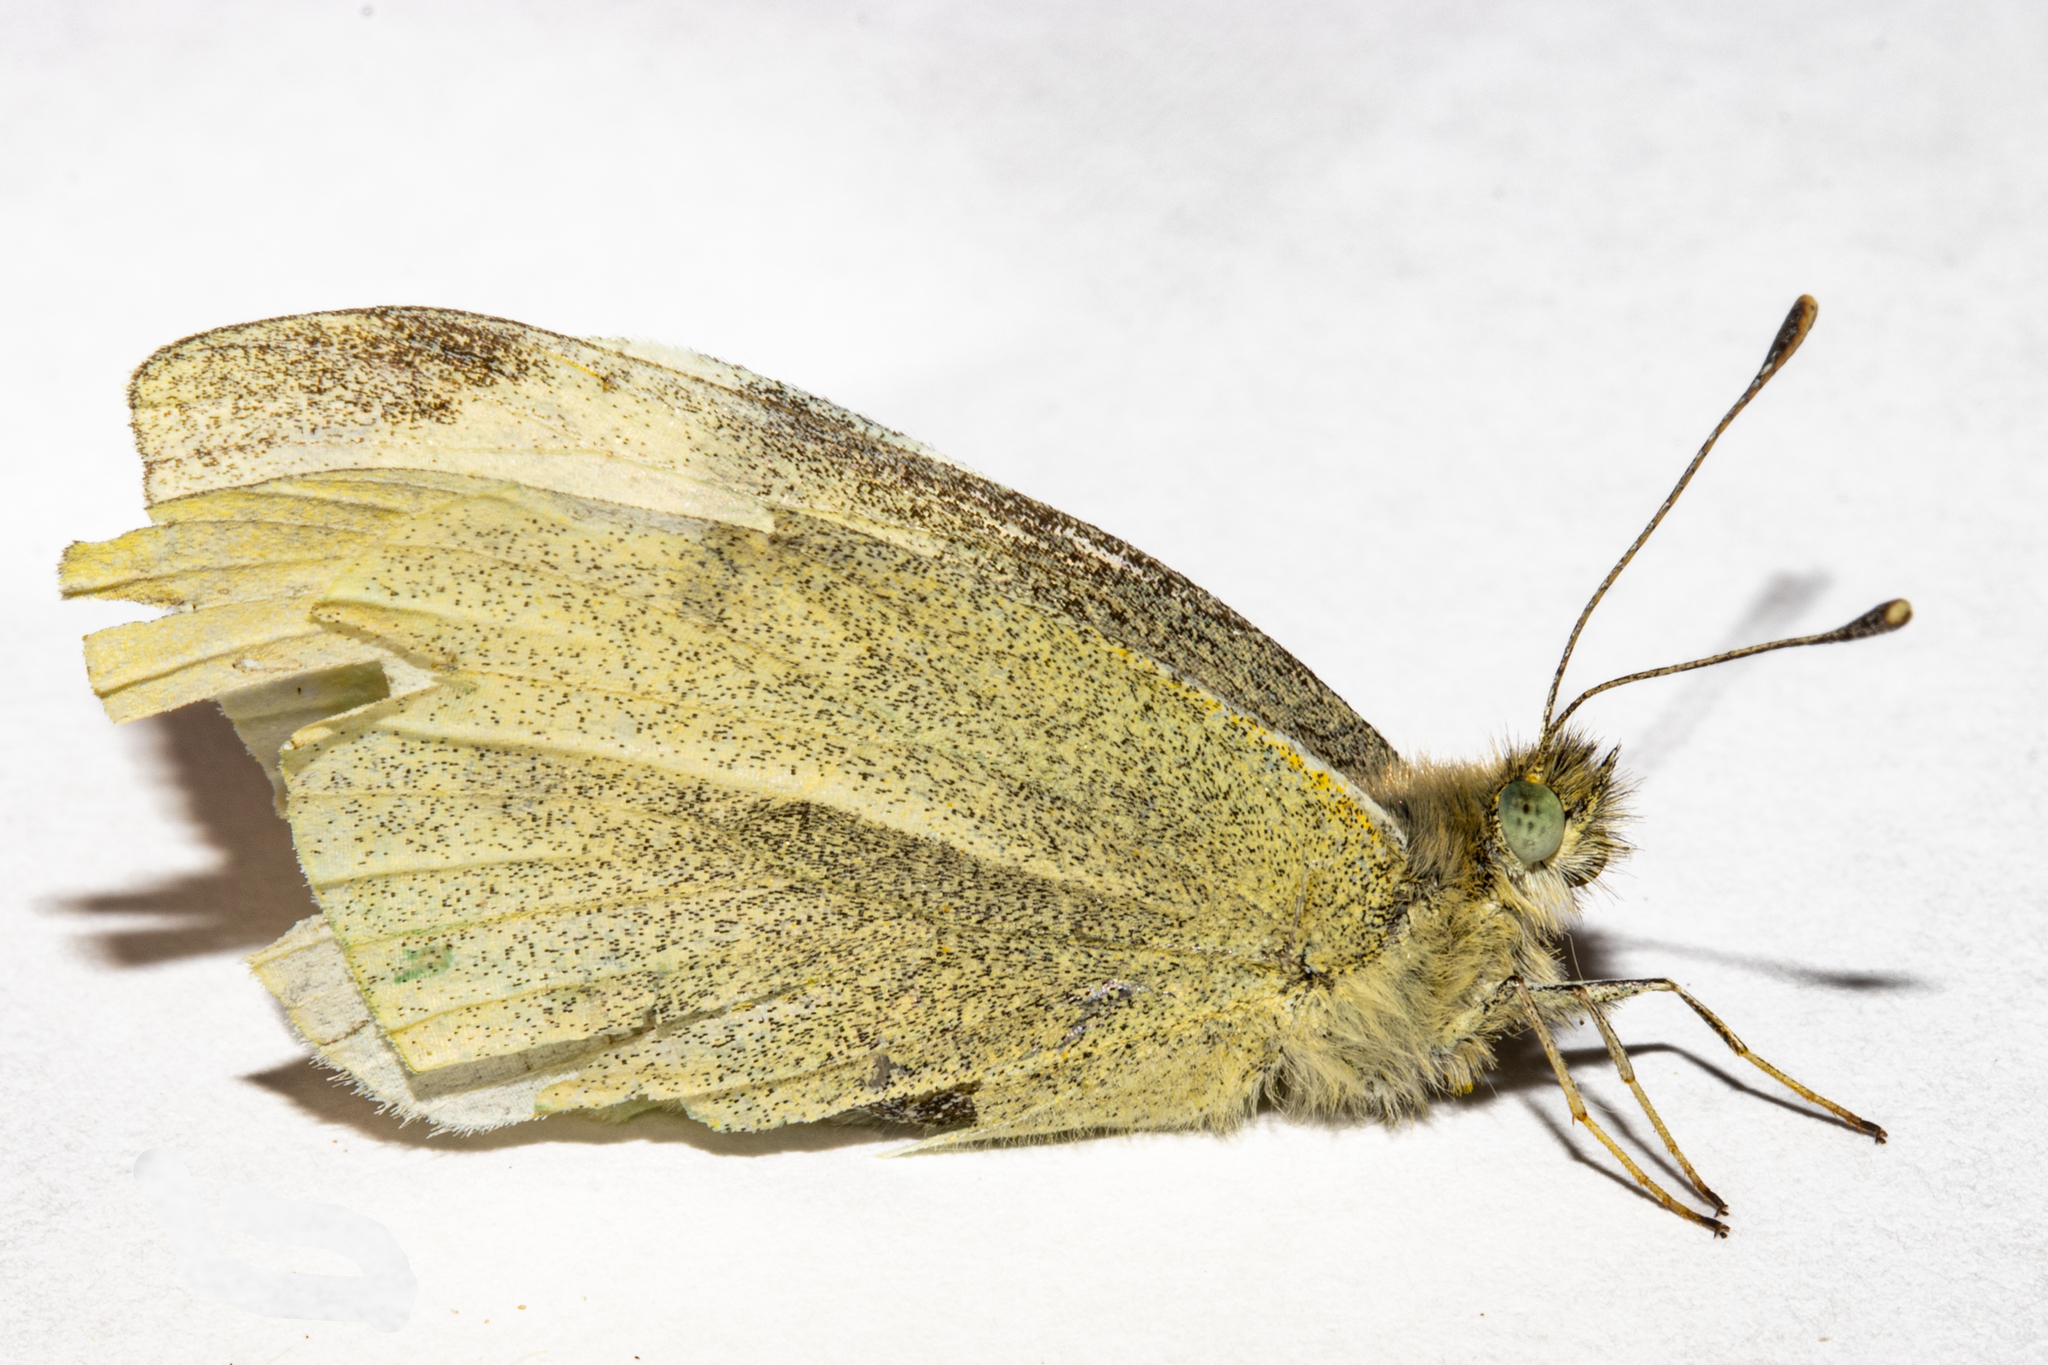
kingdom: Animalia
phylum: Arthropoda
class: Insecta
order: Lepidoptera
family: Pieridae
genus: Pieris
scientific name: Pieris rapae
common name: Small white
